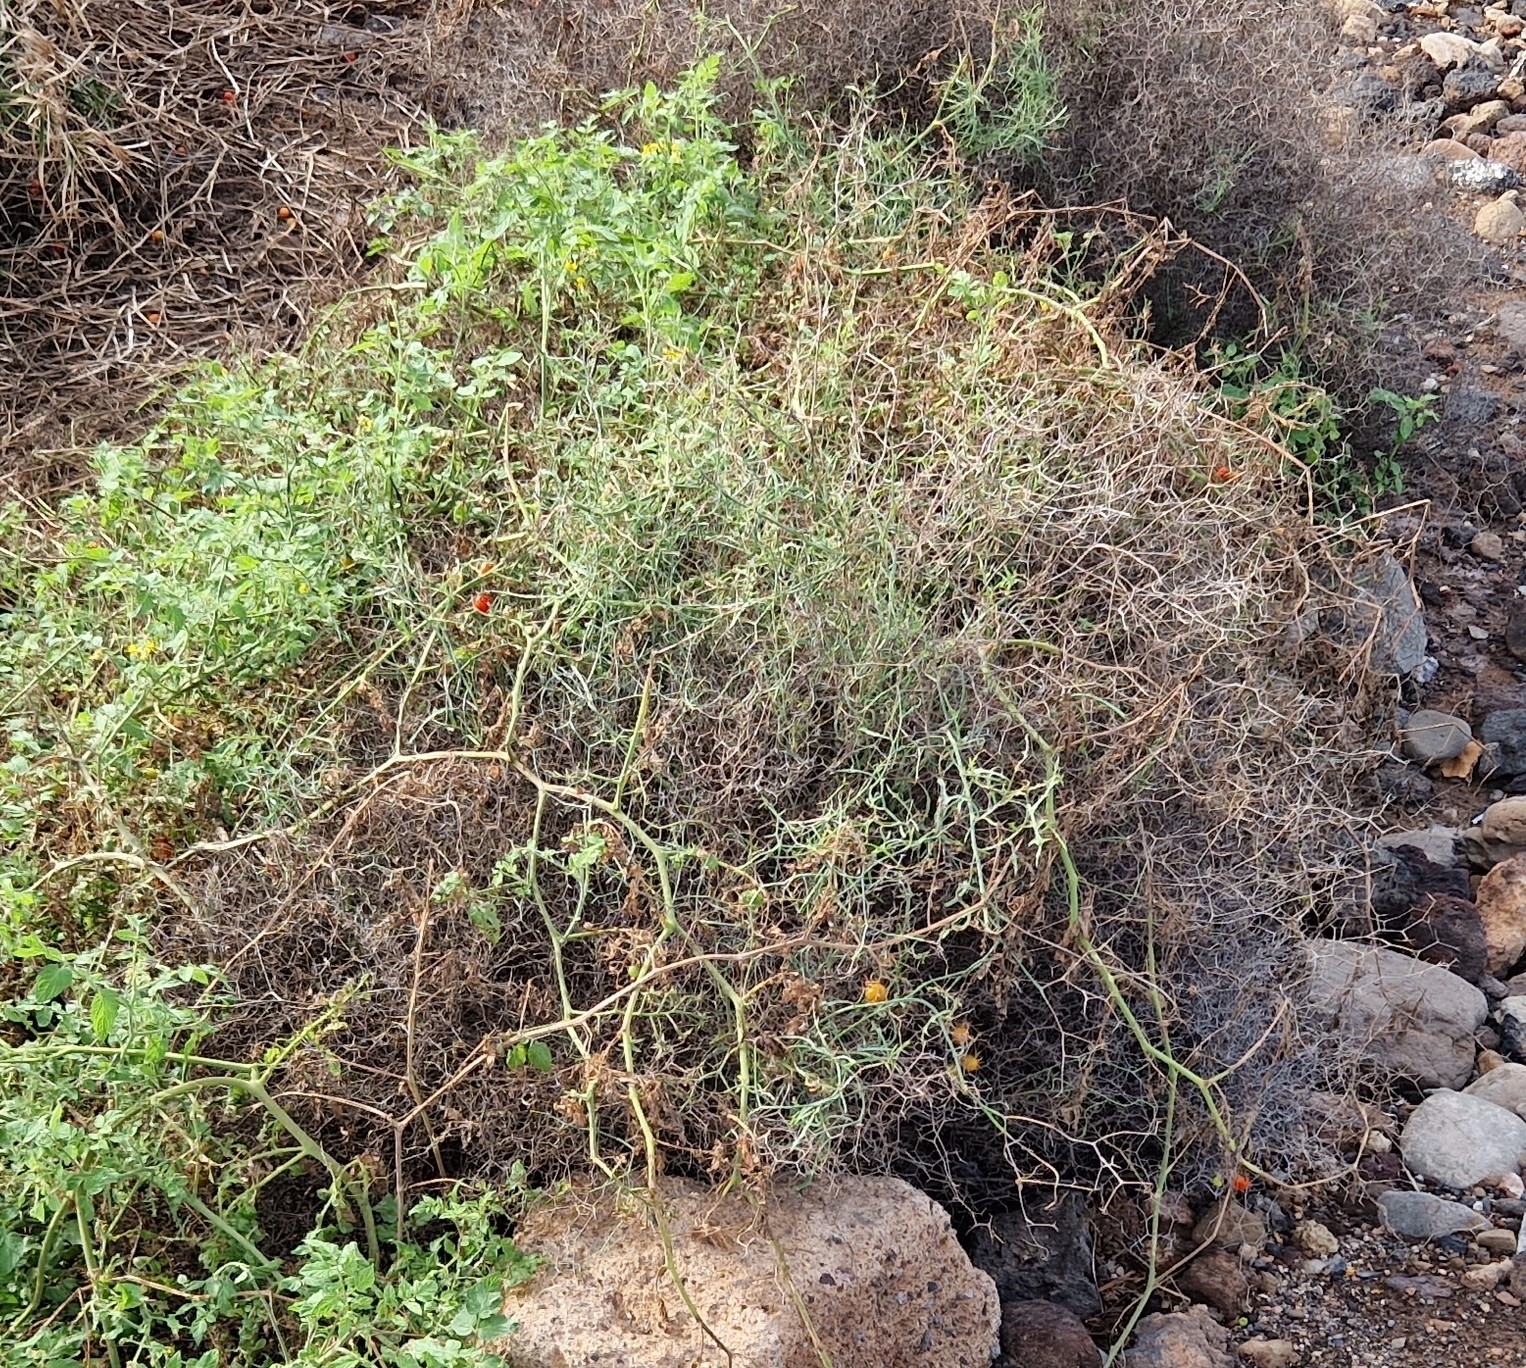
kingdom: Plantae
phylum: Tracheophyta
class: Magnoliopsida
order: Solanales
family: Solanaceae
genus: Solanum
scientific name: Solanum lycopersicum
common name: Garden tomato
